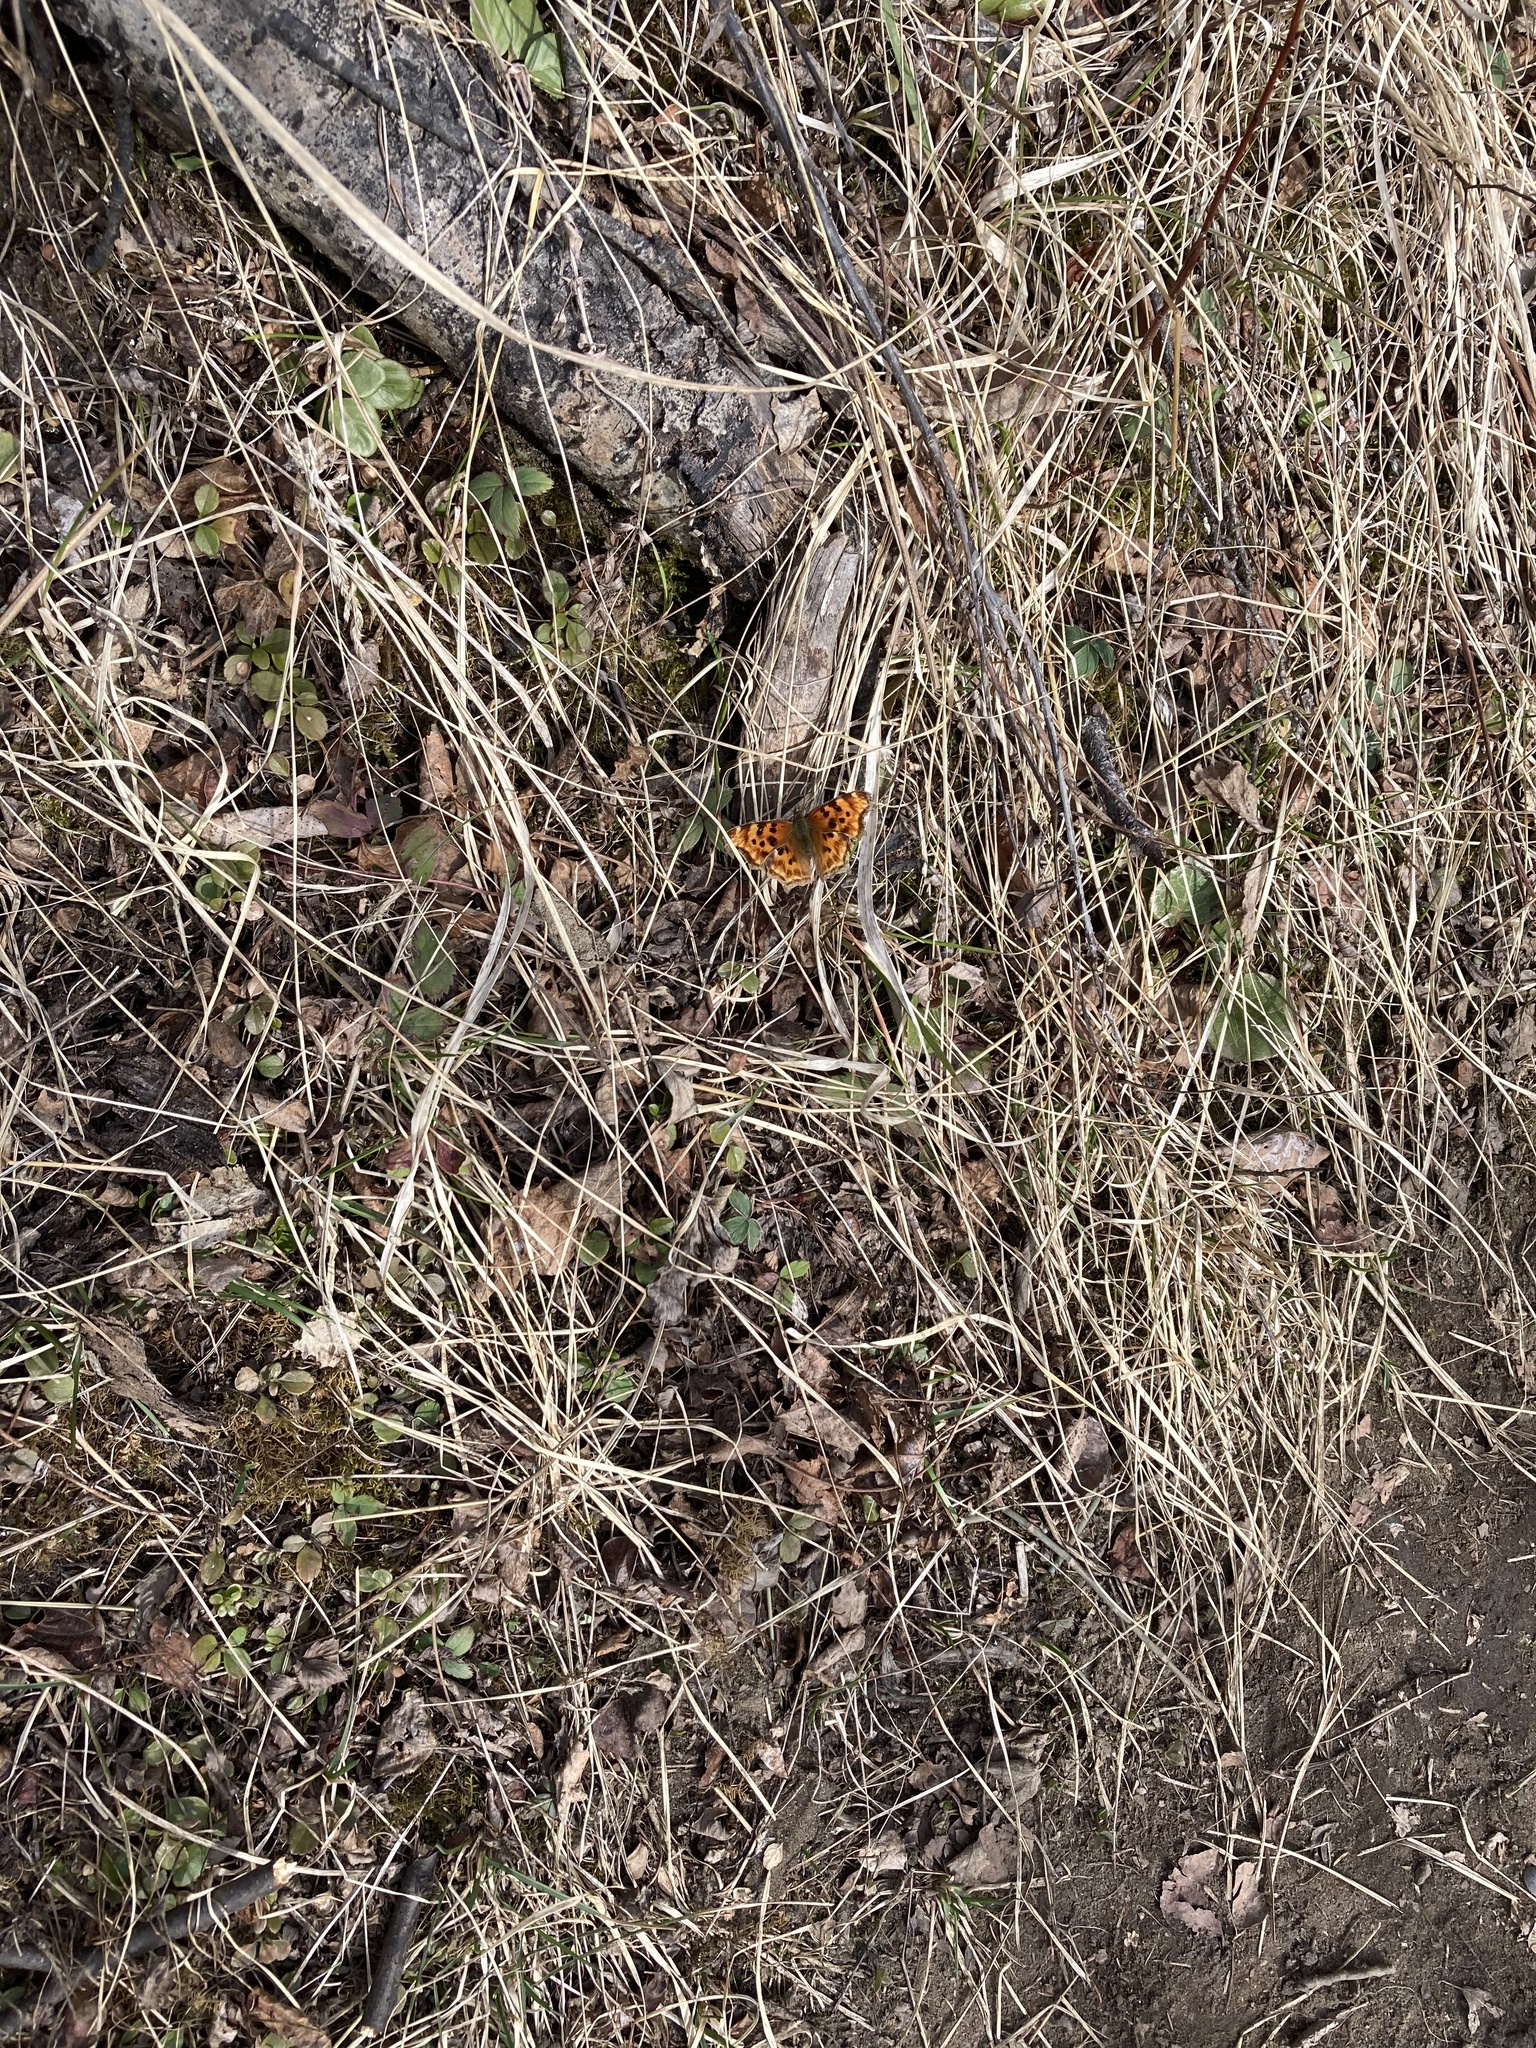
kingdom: Animalia
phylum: Arthropoda
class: Insecta
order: Lepidoptera
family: Nymphalidae
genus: Polygonia
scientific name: Polygonia faunus
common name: Green comma
